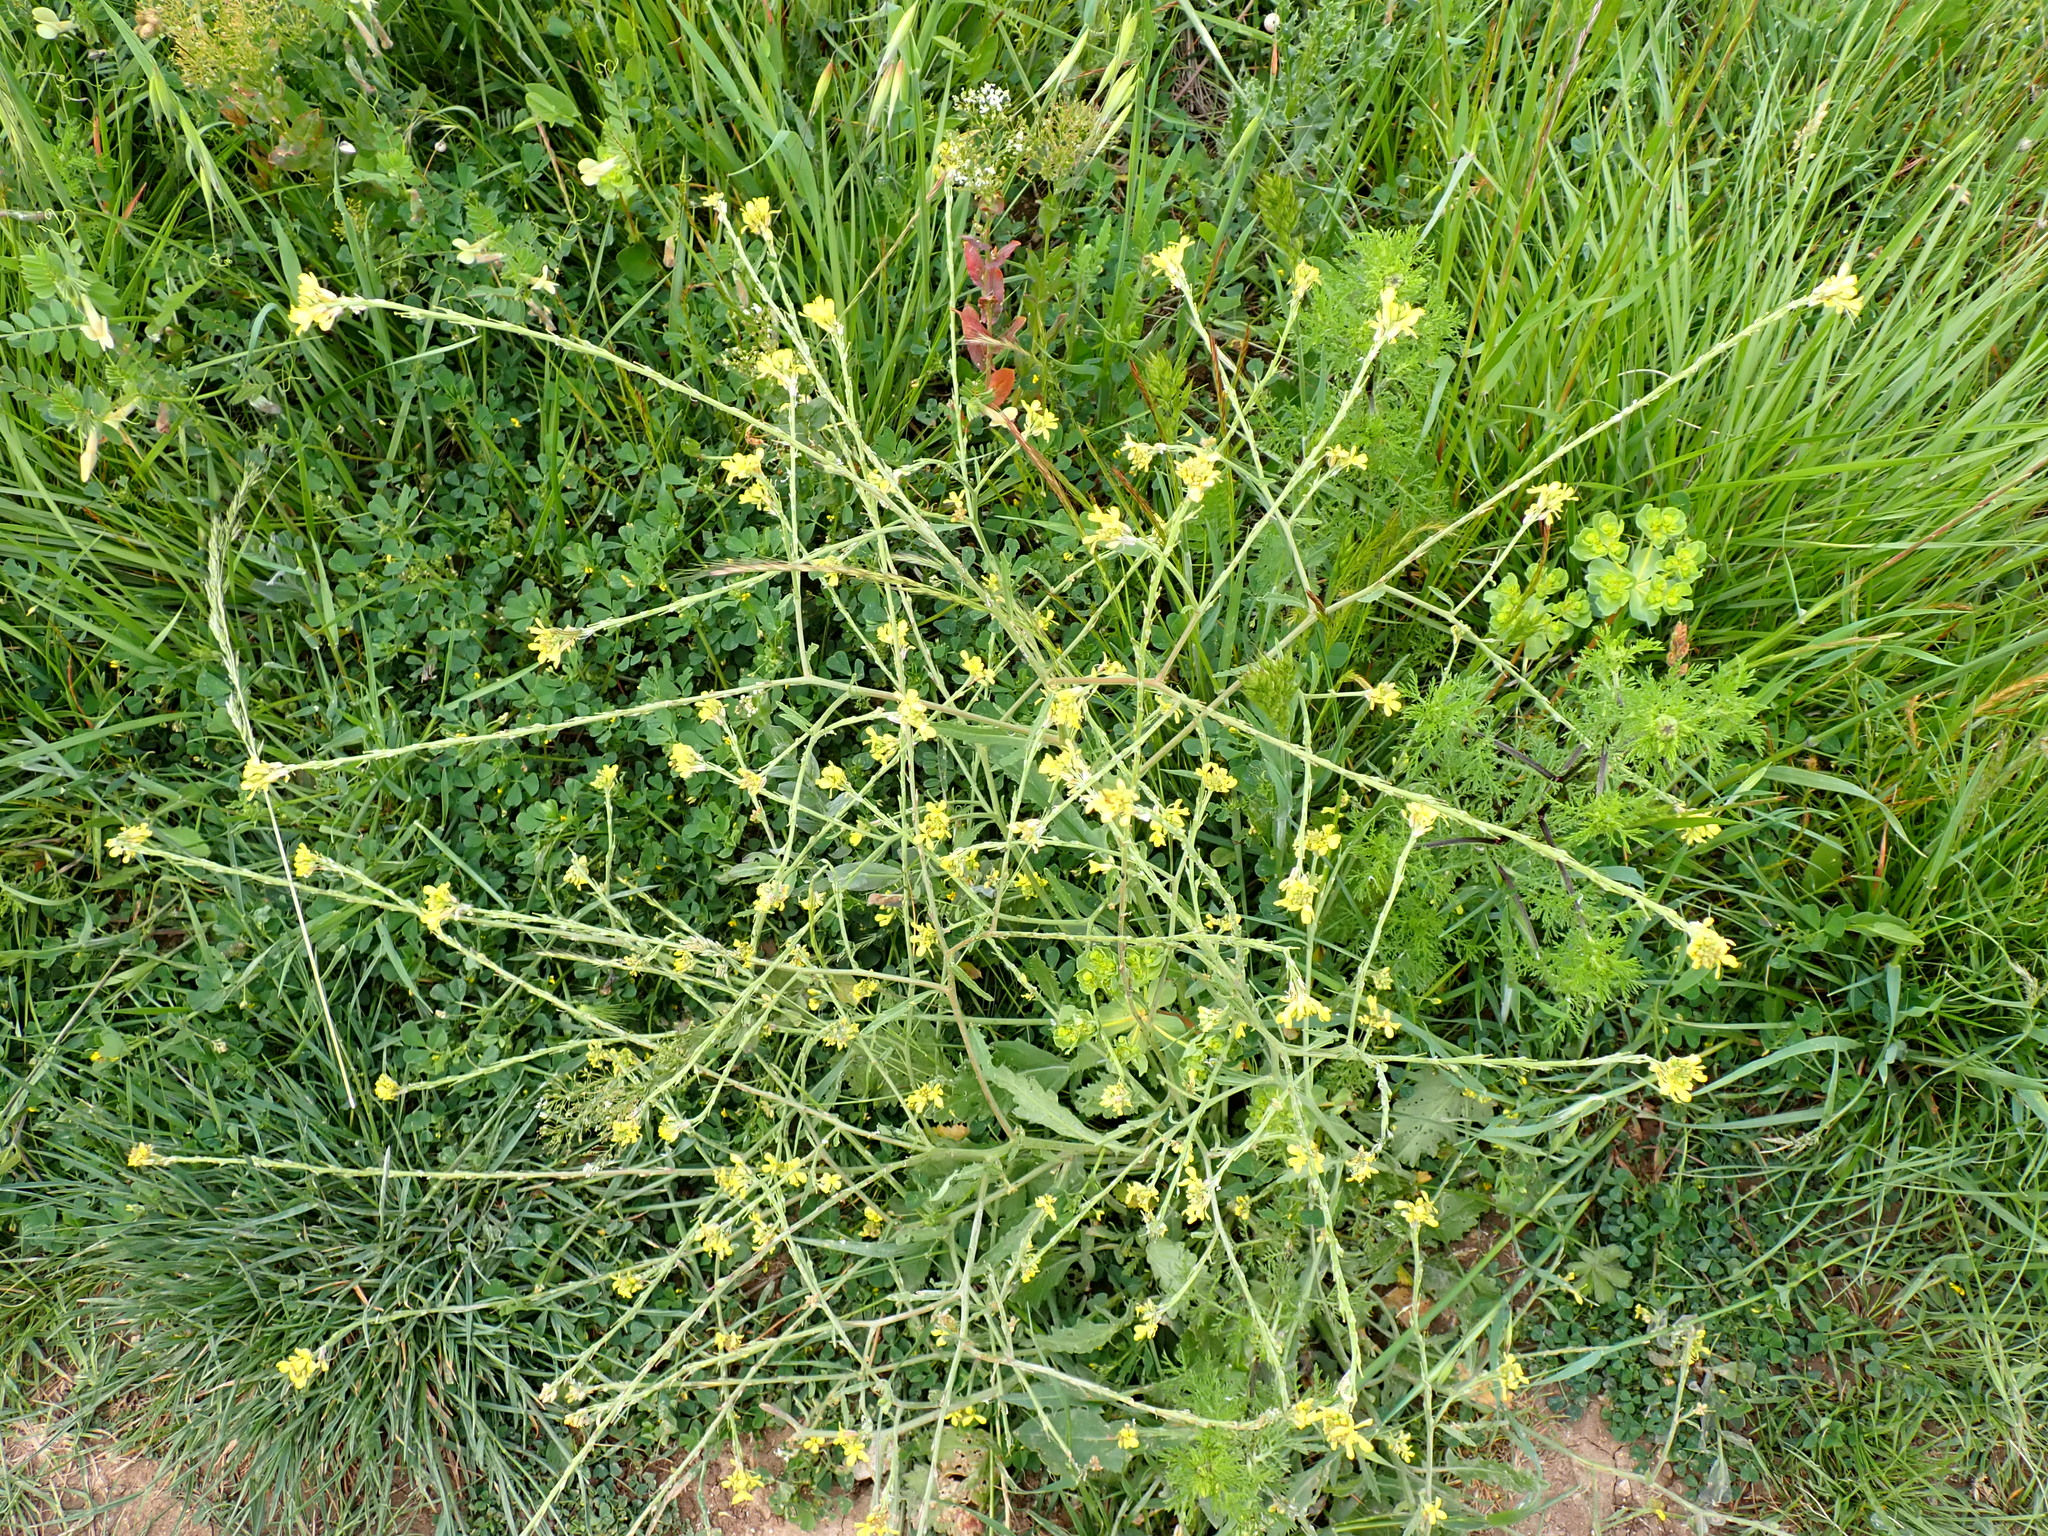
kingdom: Plantae
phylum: Tracheophyta
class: Magnoliopsida
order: Brassicales
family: Brassicaceae
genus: Sisymbrium
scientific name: Sisymbrium officinale
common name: Hedge mustard
